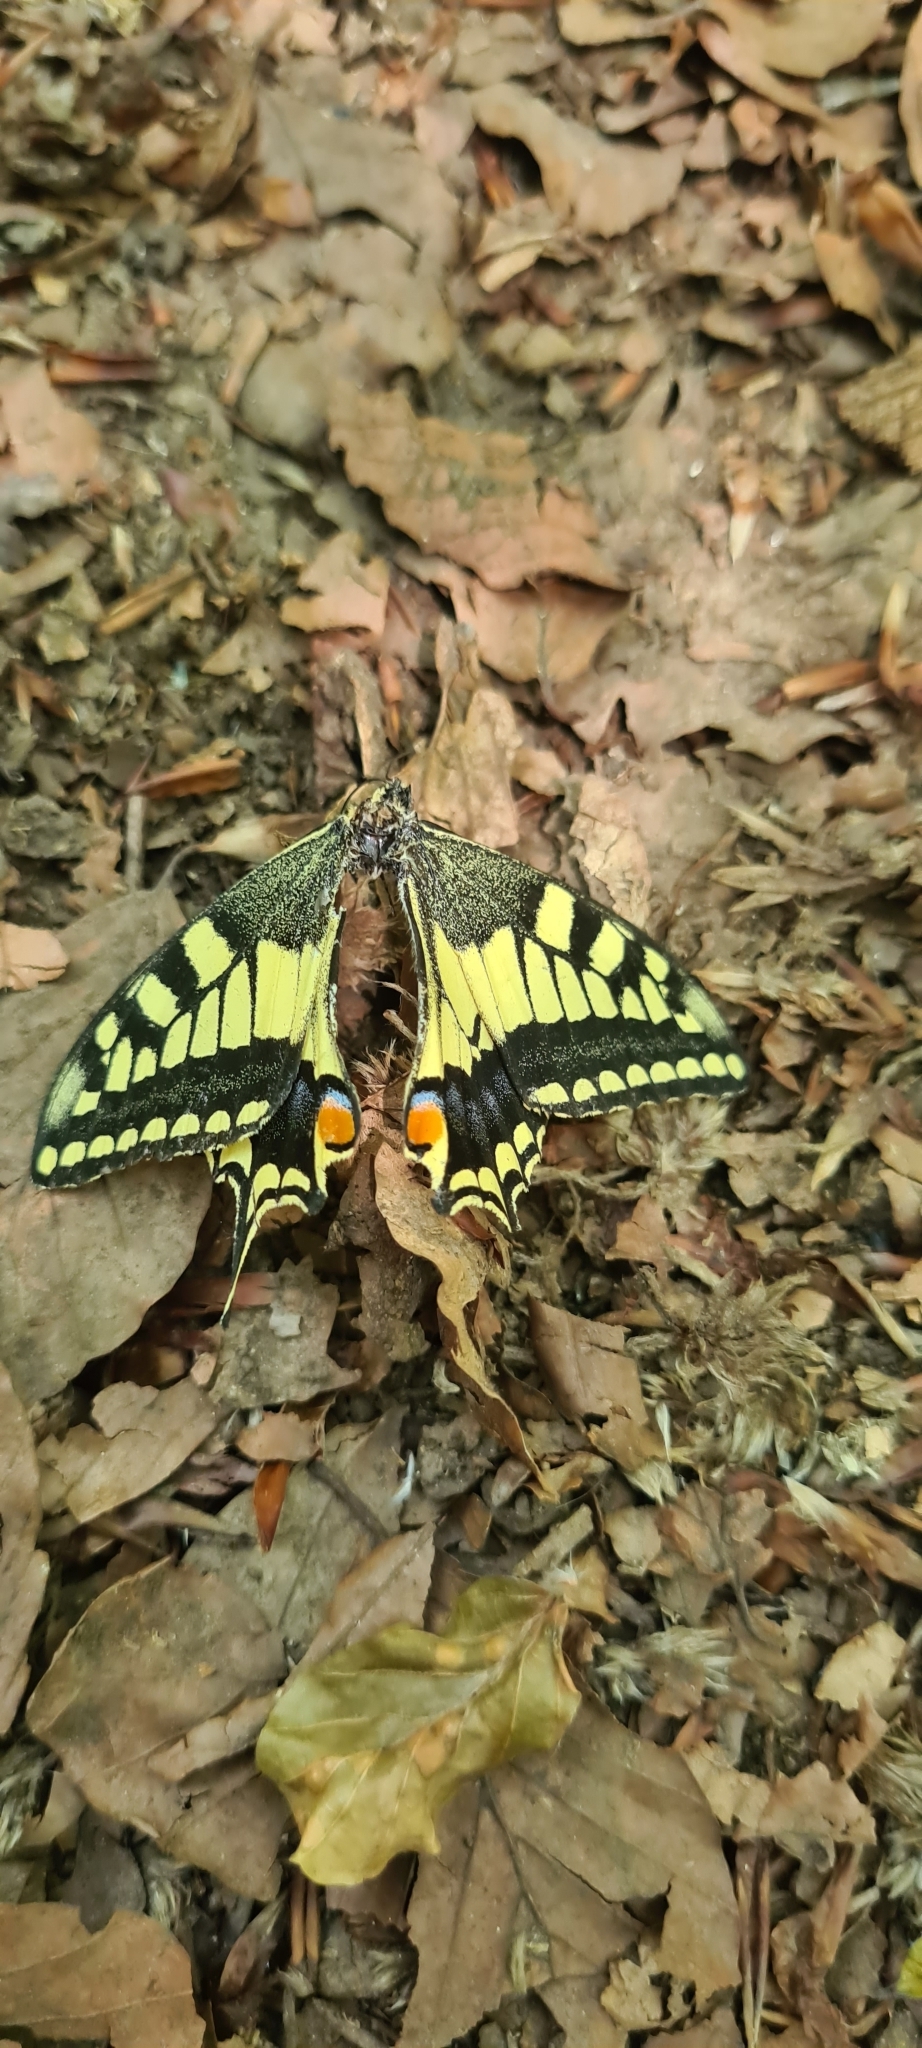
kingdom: Animalia
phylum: Arthropoda
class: Insecta
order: Lepidoptera
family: Papilionidae
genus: Papilio
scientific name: Papilio machaon
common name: Swallowtail
